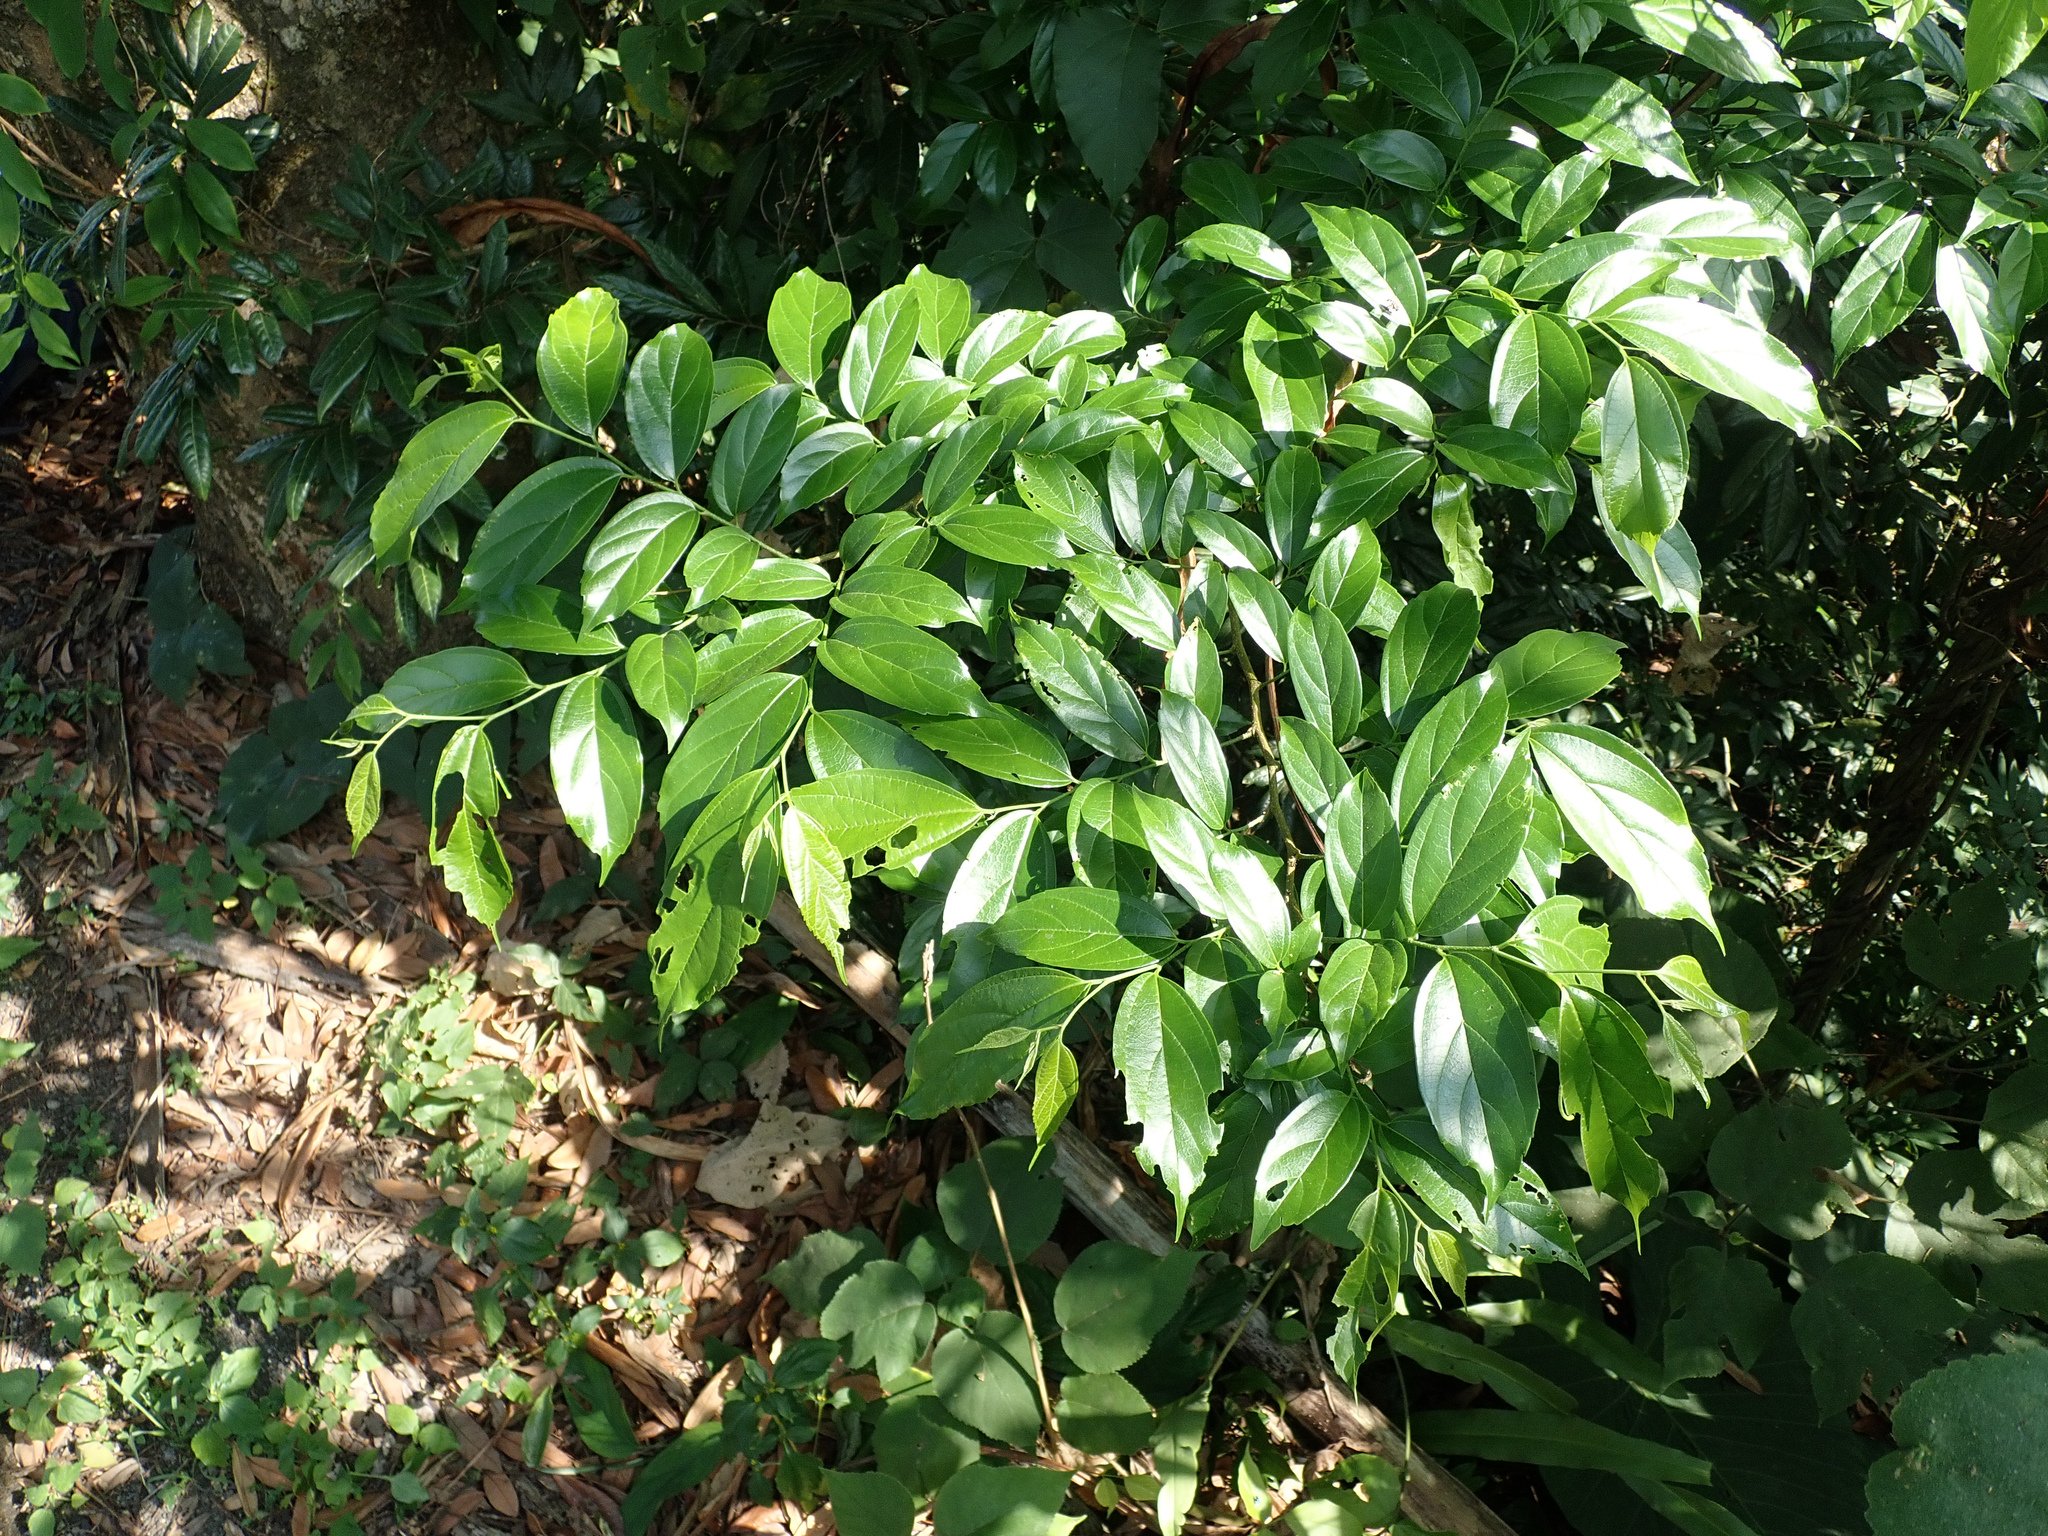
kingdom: Plantae
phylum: Tracheophyta
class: Magnoliopsida
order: Rosales
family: Cannabaceae
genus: Celtis
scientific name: Celtis tetrandra
